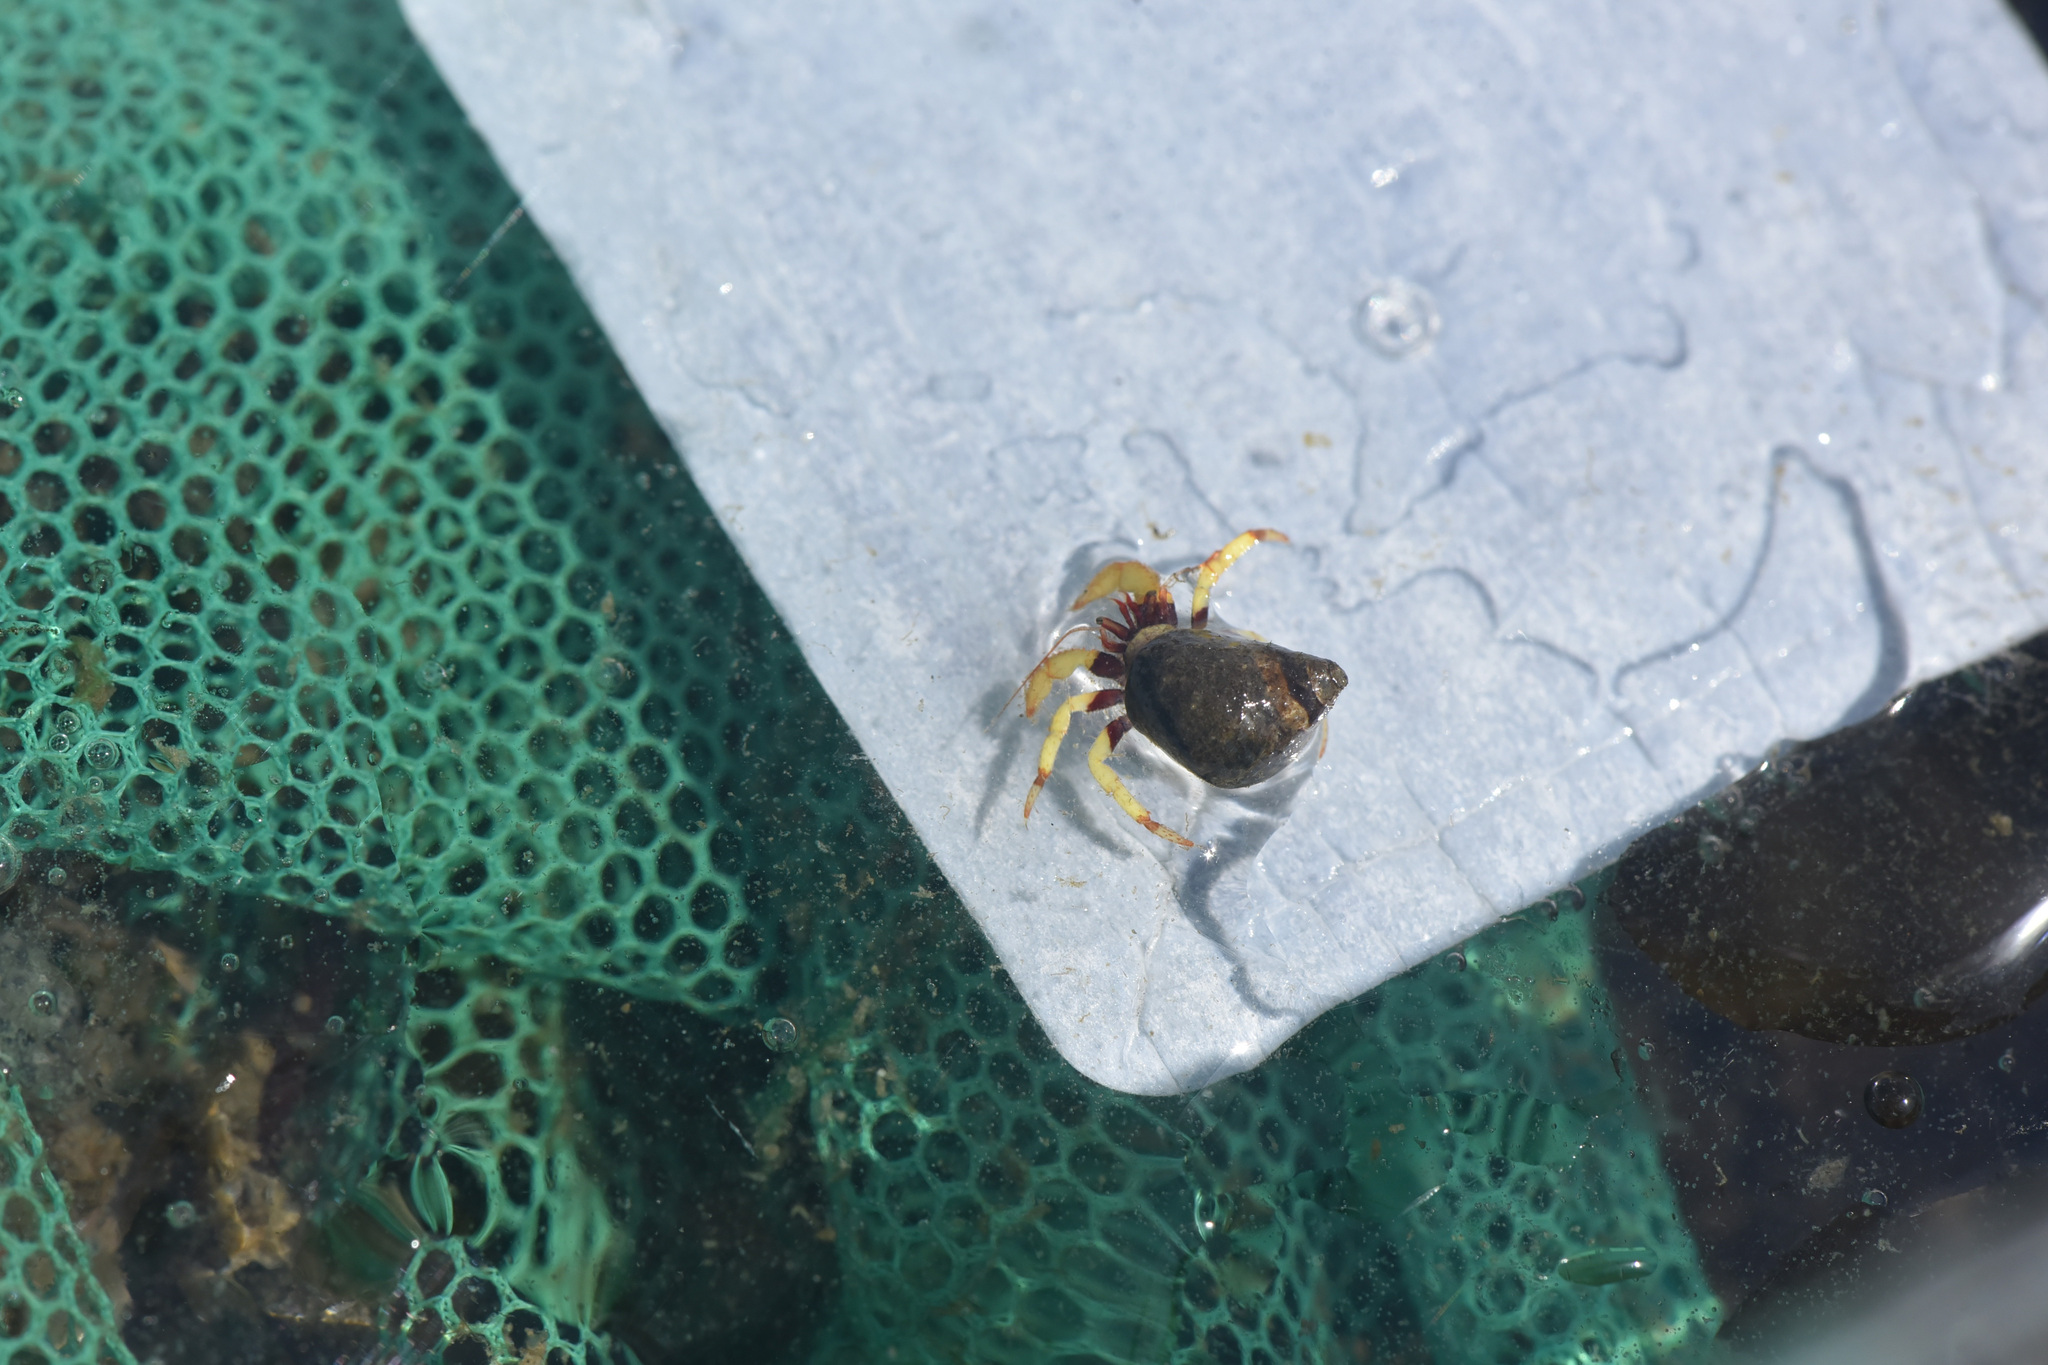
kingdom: Animalia
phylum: Arthropoda
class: Malacostraca
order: Decapoda
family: Paguridae
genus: Pagurus
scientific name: Pagurus beringanus
